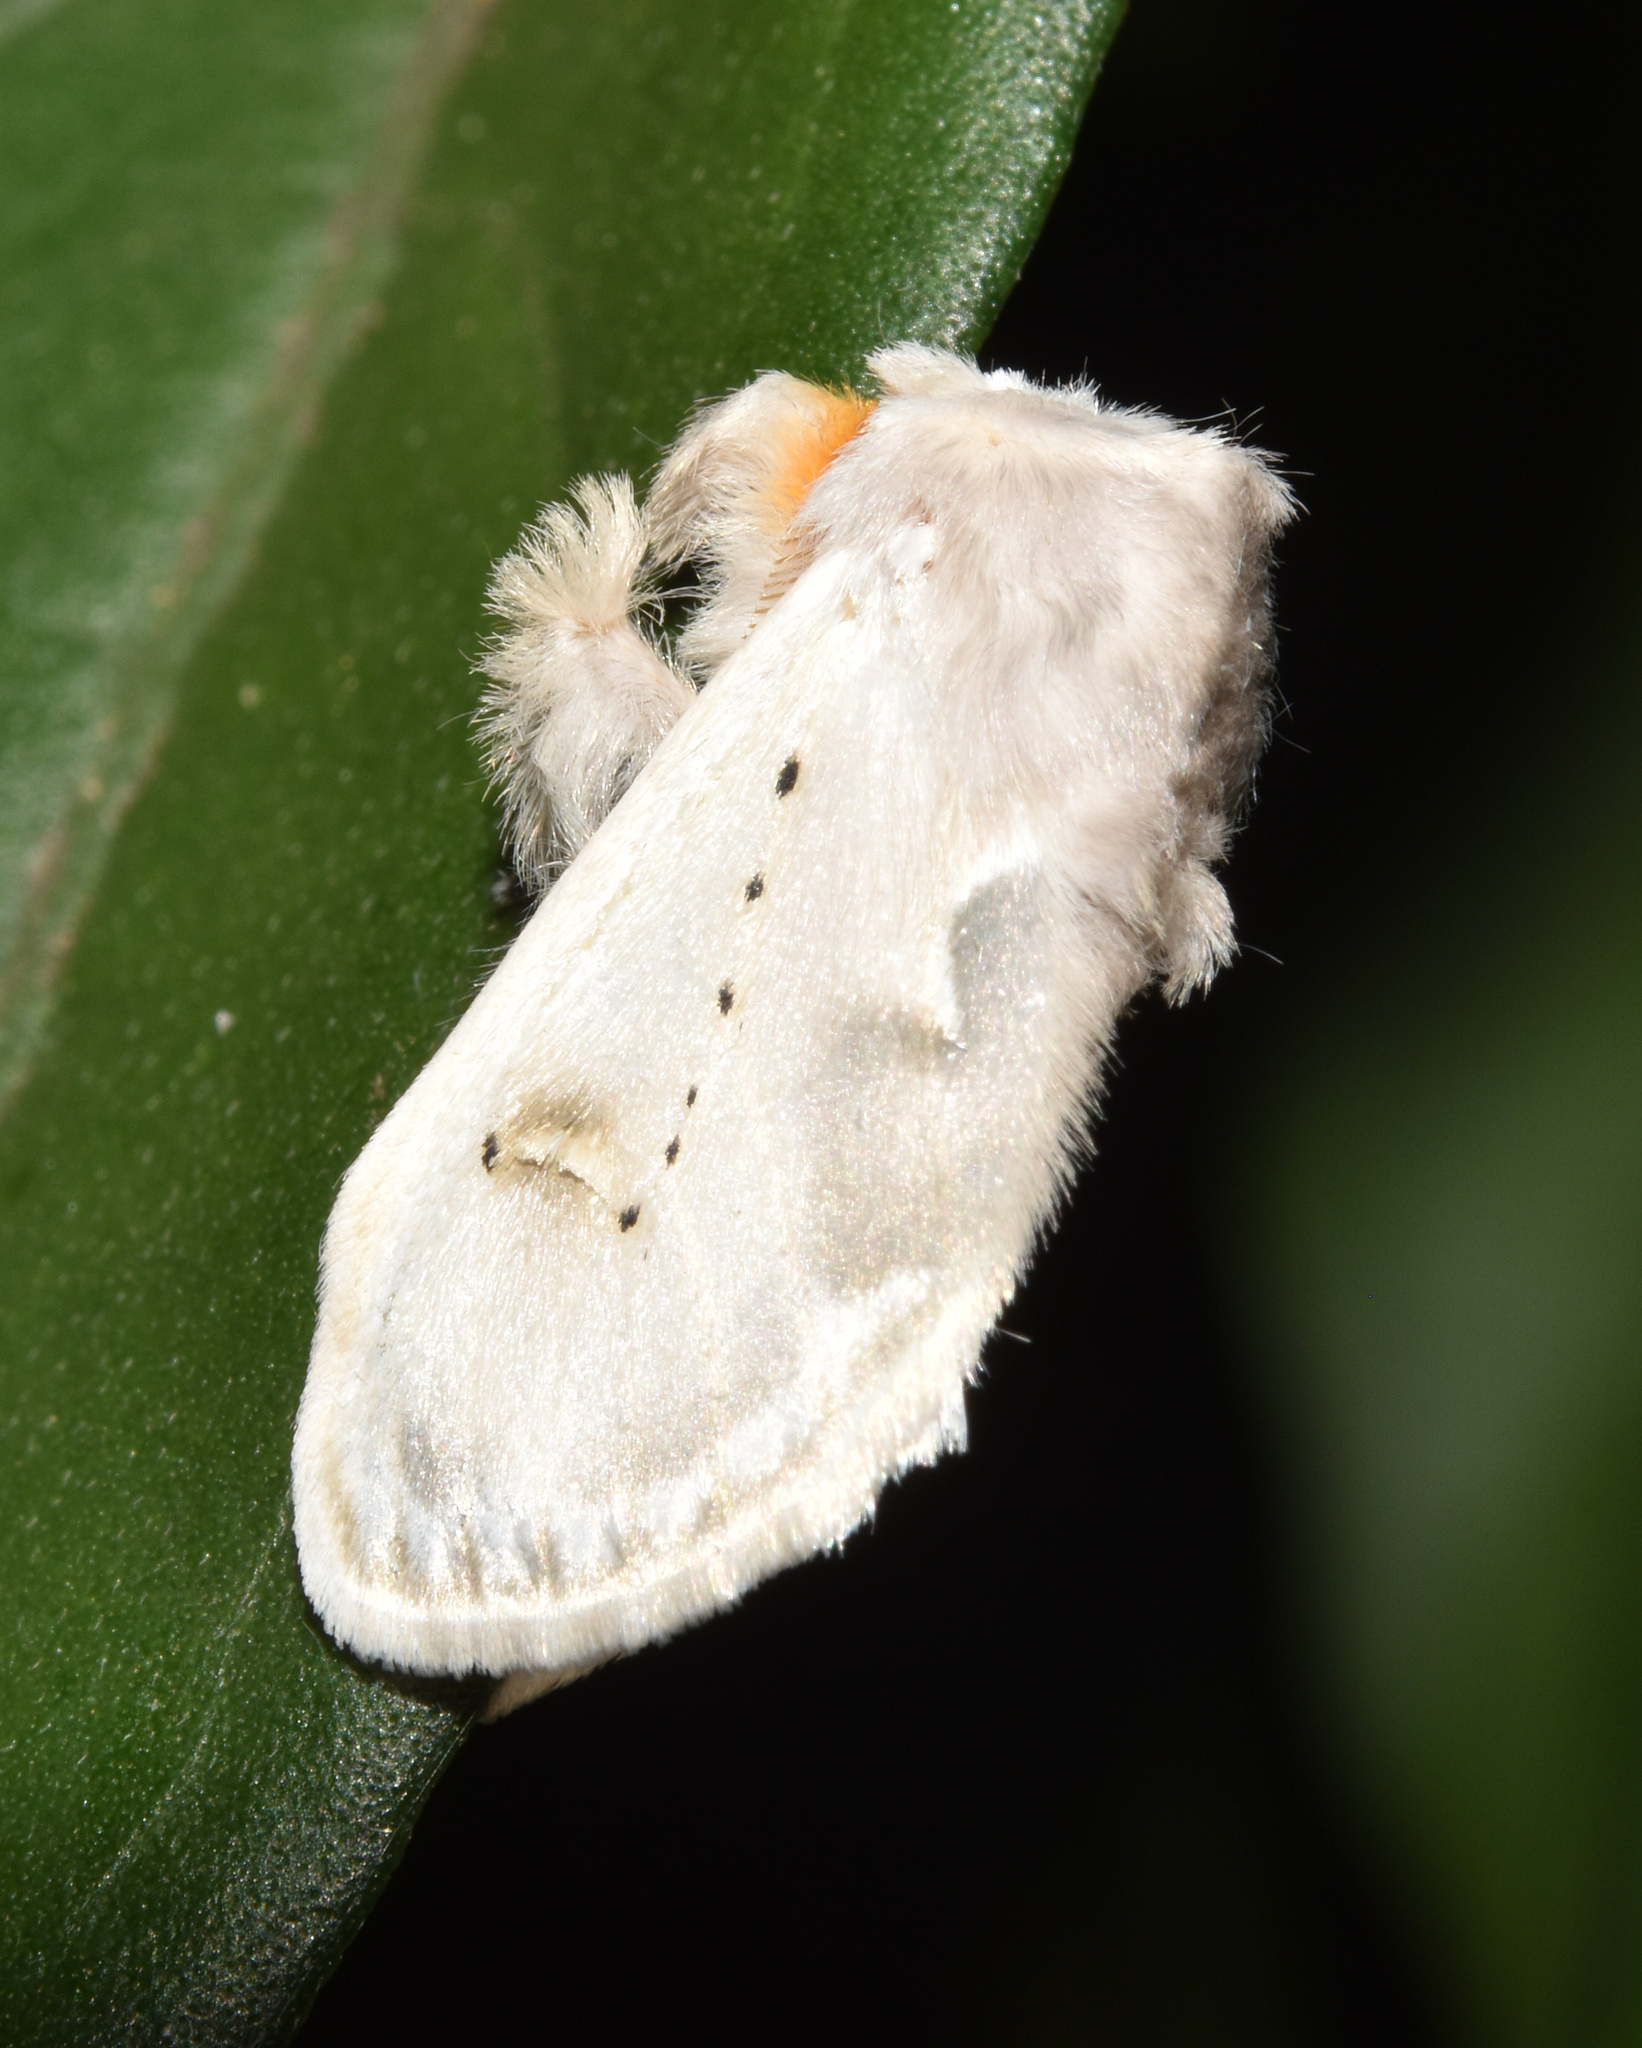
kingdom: Animalia
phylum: Arthropoda
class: Insecta
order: Lepidoptera
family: Erebidae
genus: Naroma
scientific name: Naroma varipes
